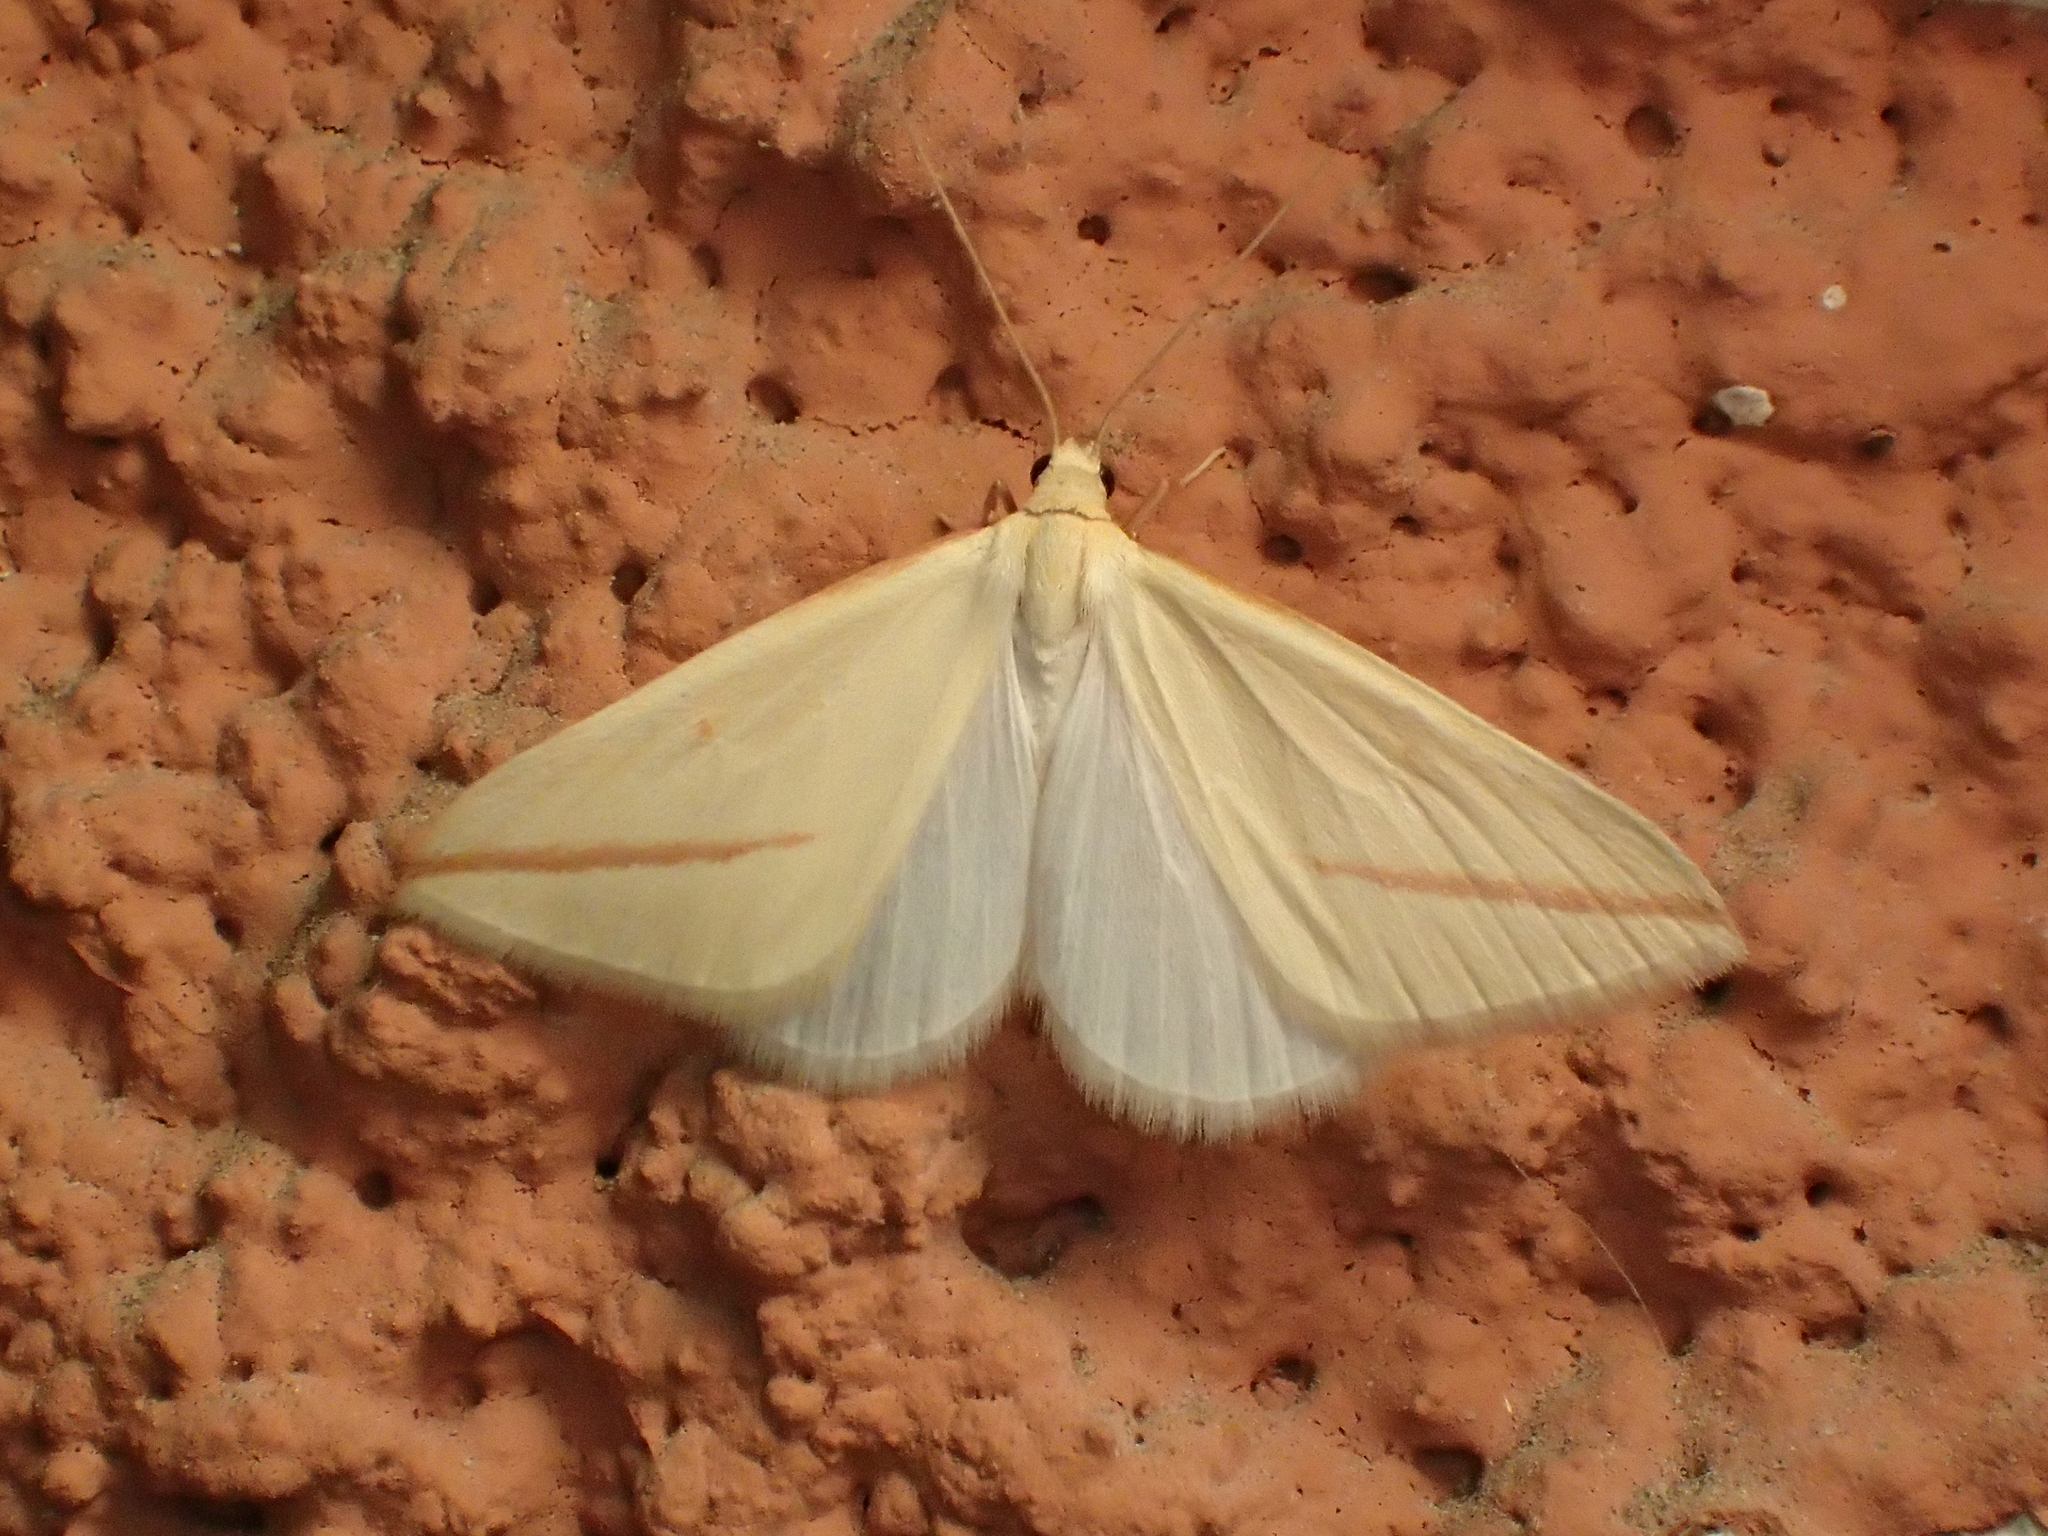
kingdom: Animalia
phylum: Arthropoda
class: Insecta
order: Lepidoptera
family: Geometridae
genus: Rhodometra
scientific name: Rhodometra sacraria
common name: Vestal
